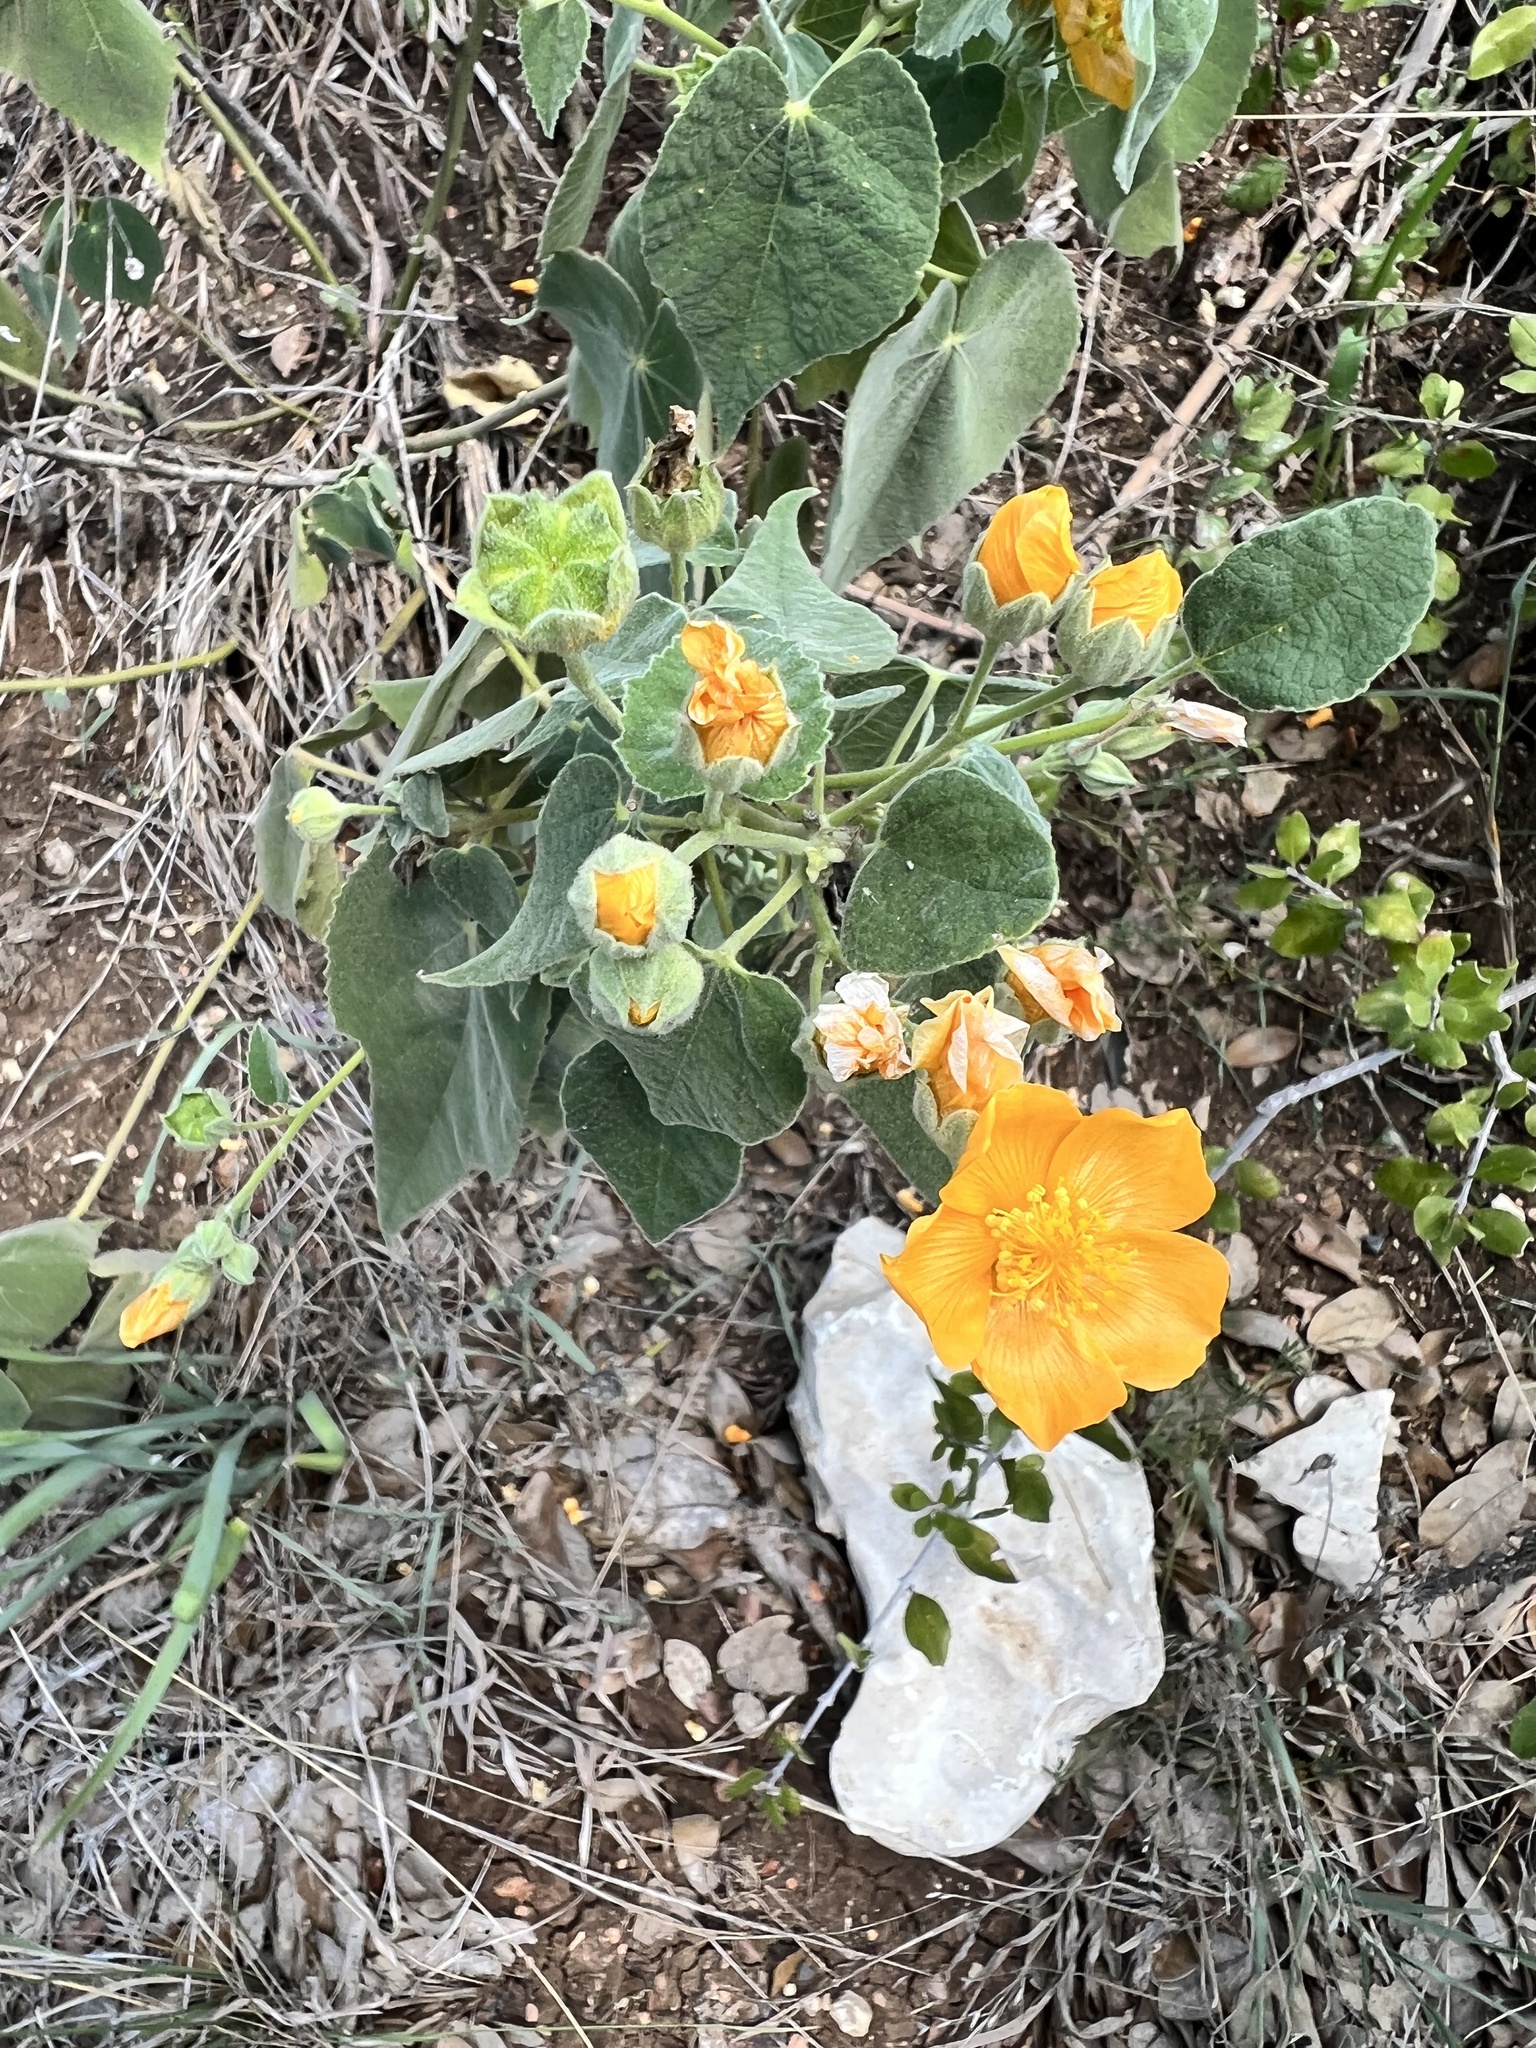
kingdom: Plantae
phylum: Tracheophyta
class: Magnoliopsida
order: Malvales
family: Malvaceae
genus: Allowissadula
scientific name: Allowissadula holosericea
